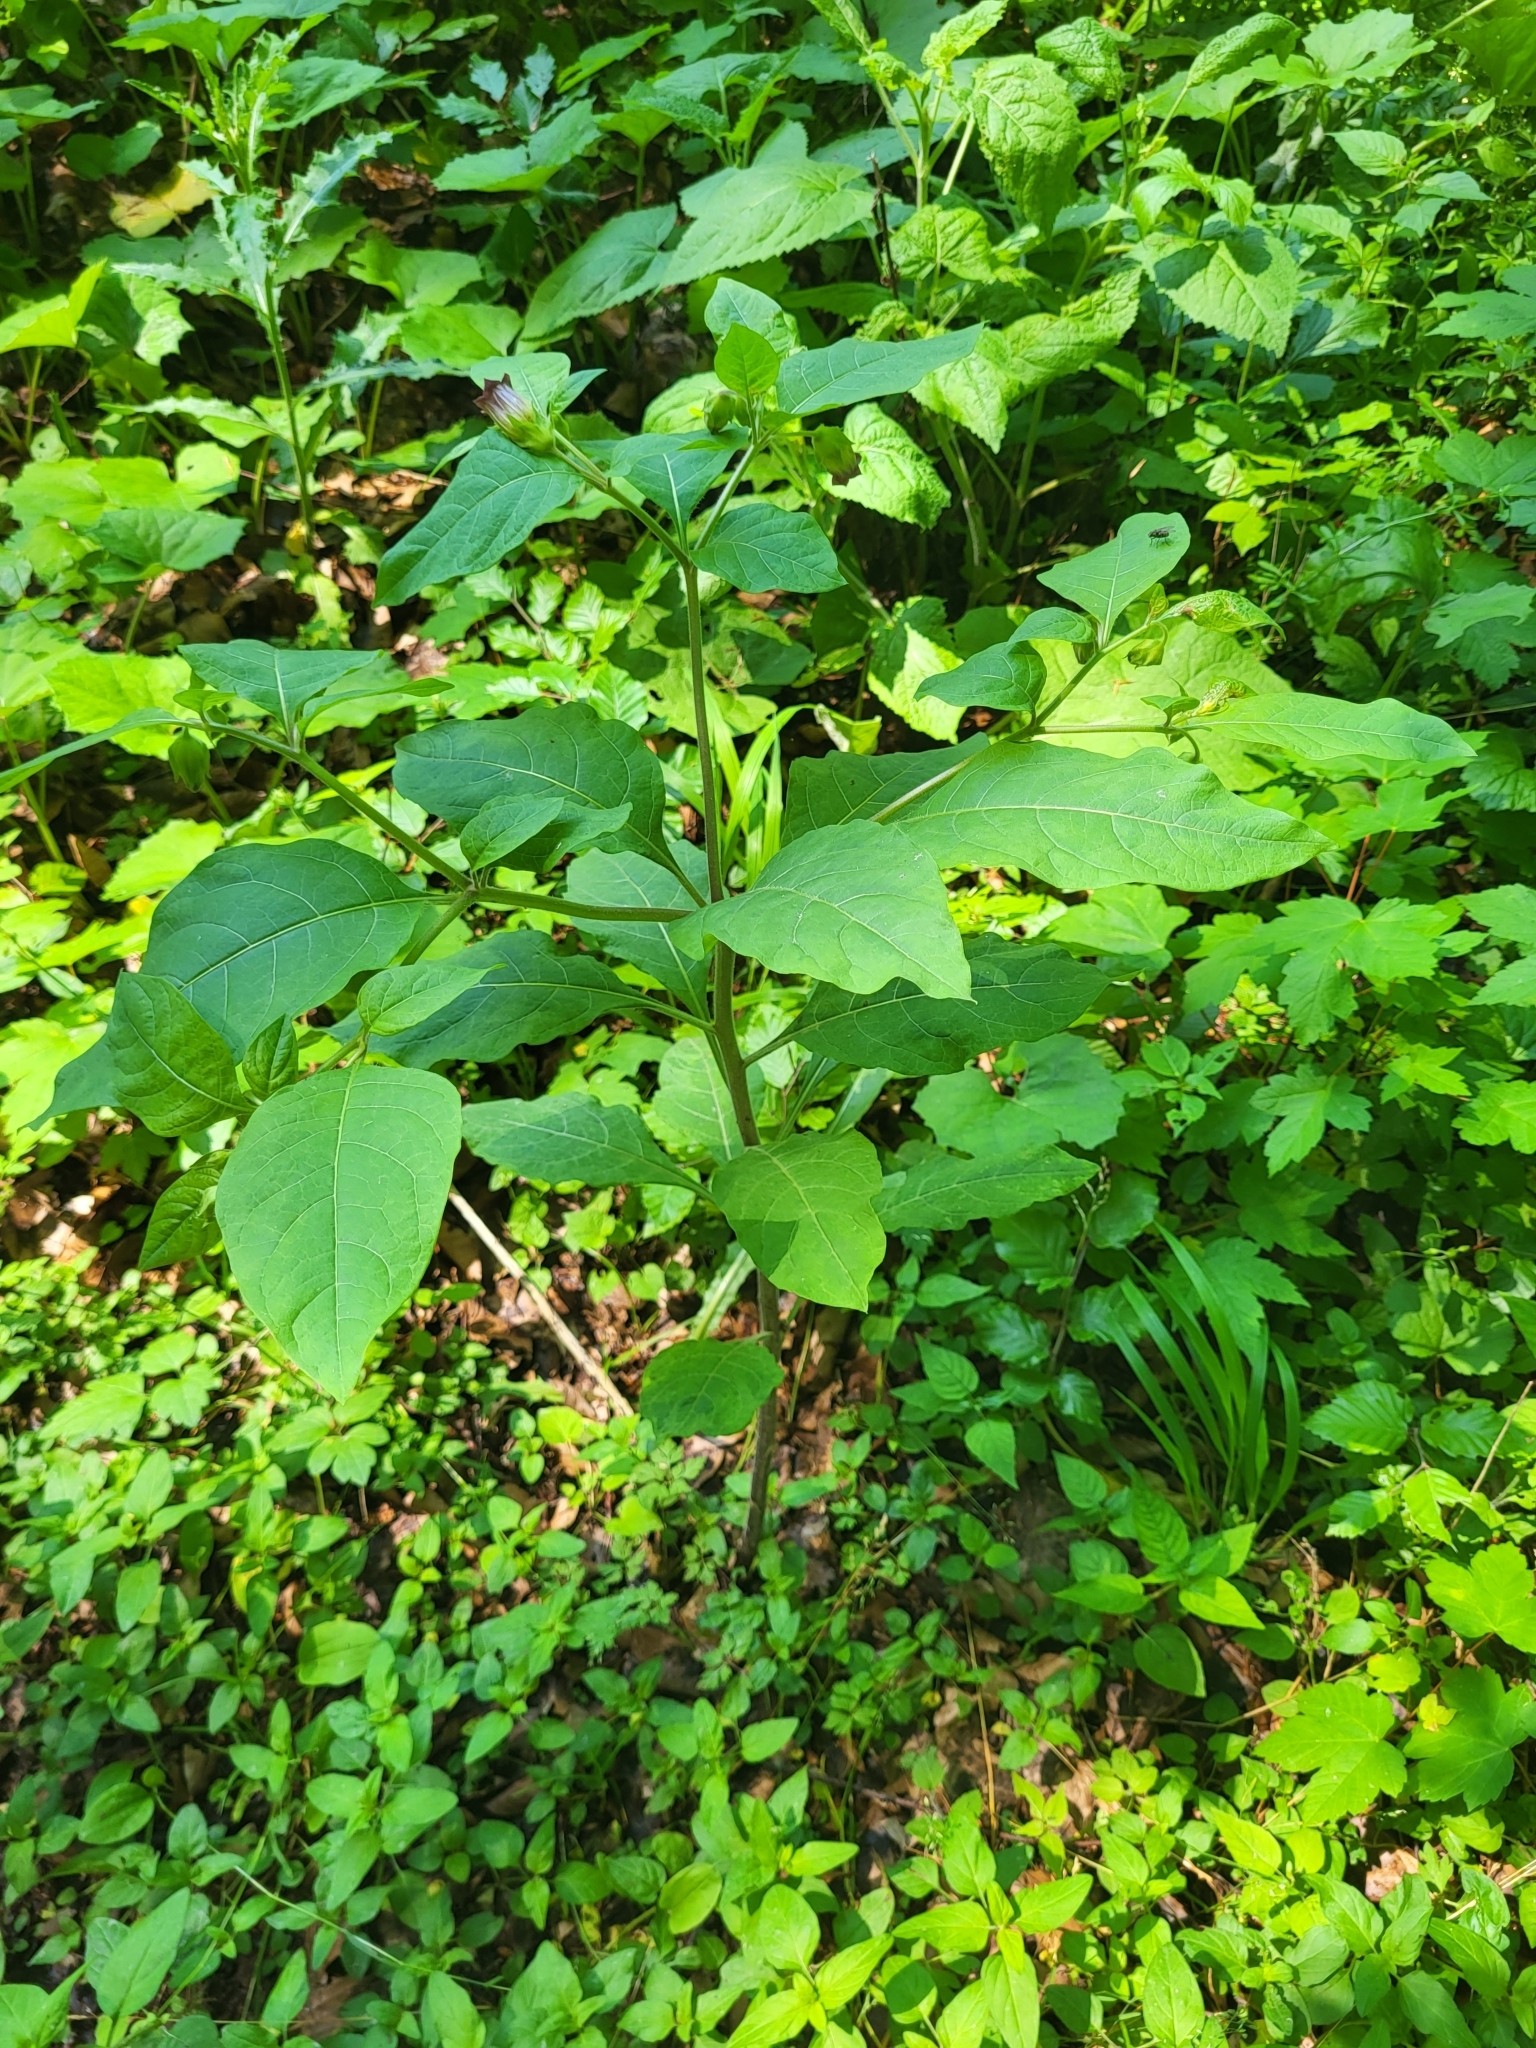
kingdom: Plantae
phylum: Tracheophyta
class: Magnoliopsida
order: Solanales
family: Solanaceae
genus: Atropa
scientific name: Atropa belladonna
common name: Deadly nightshade
